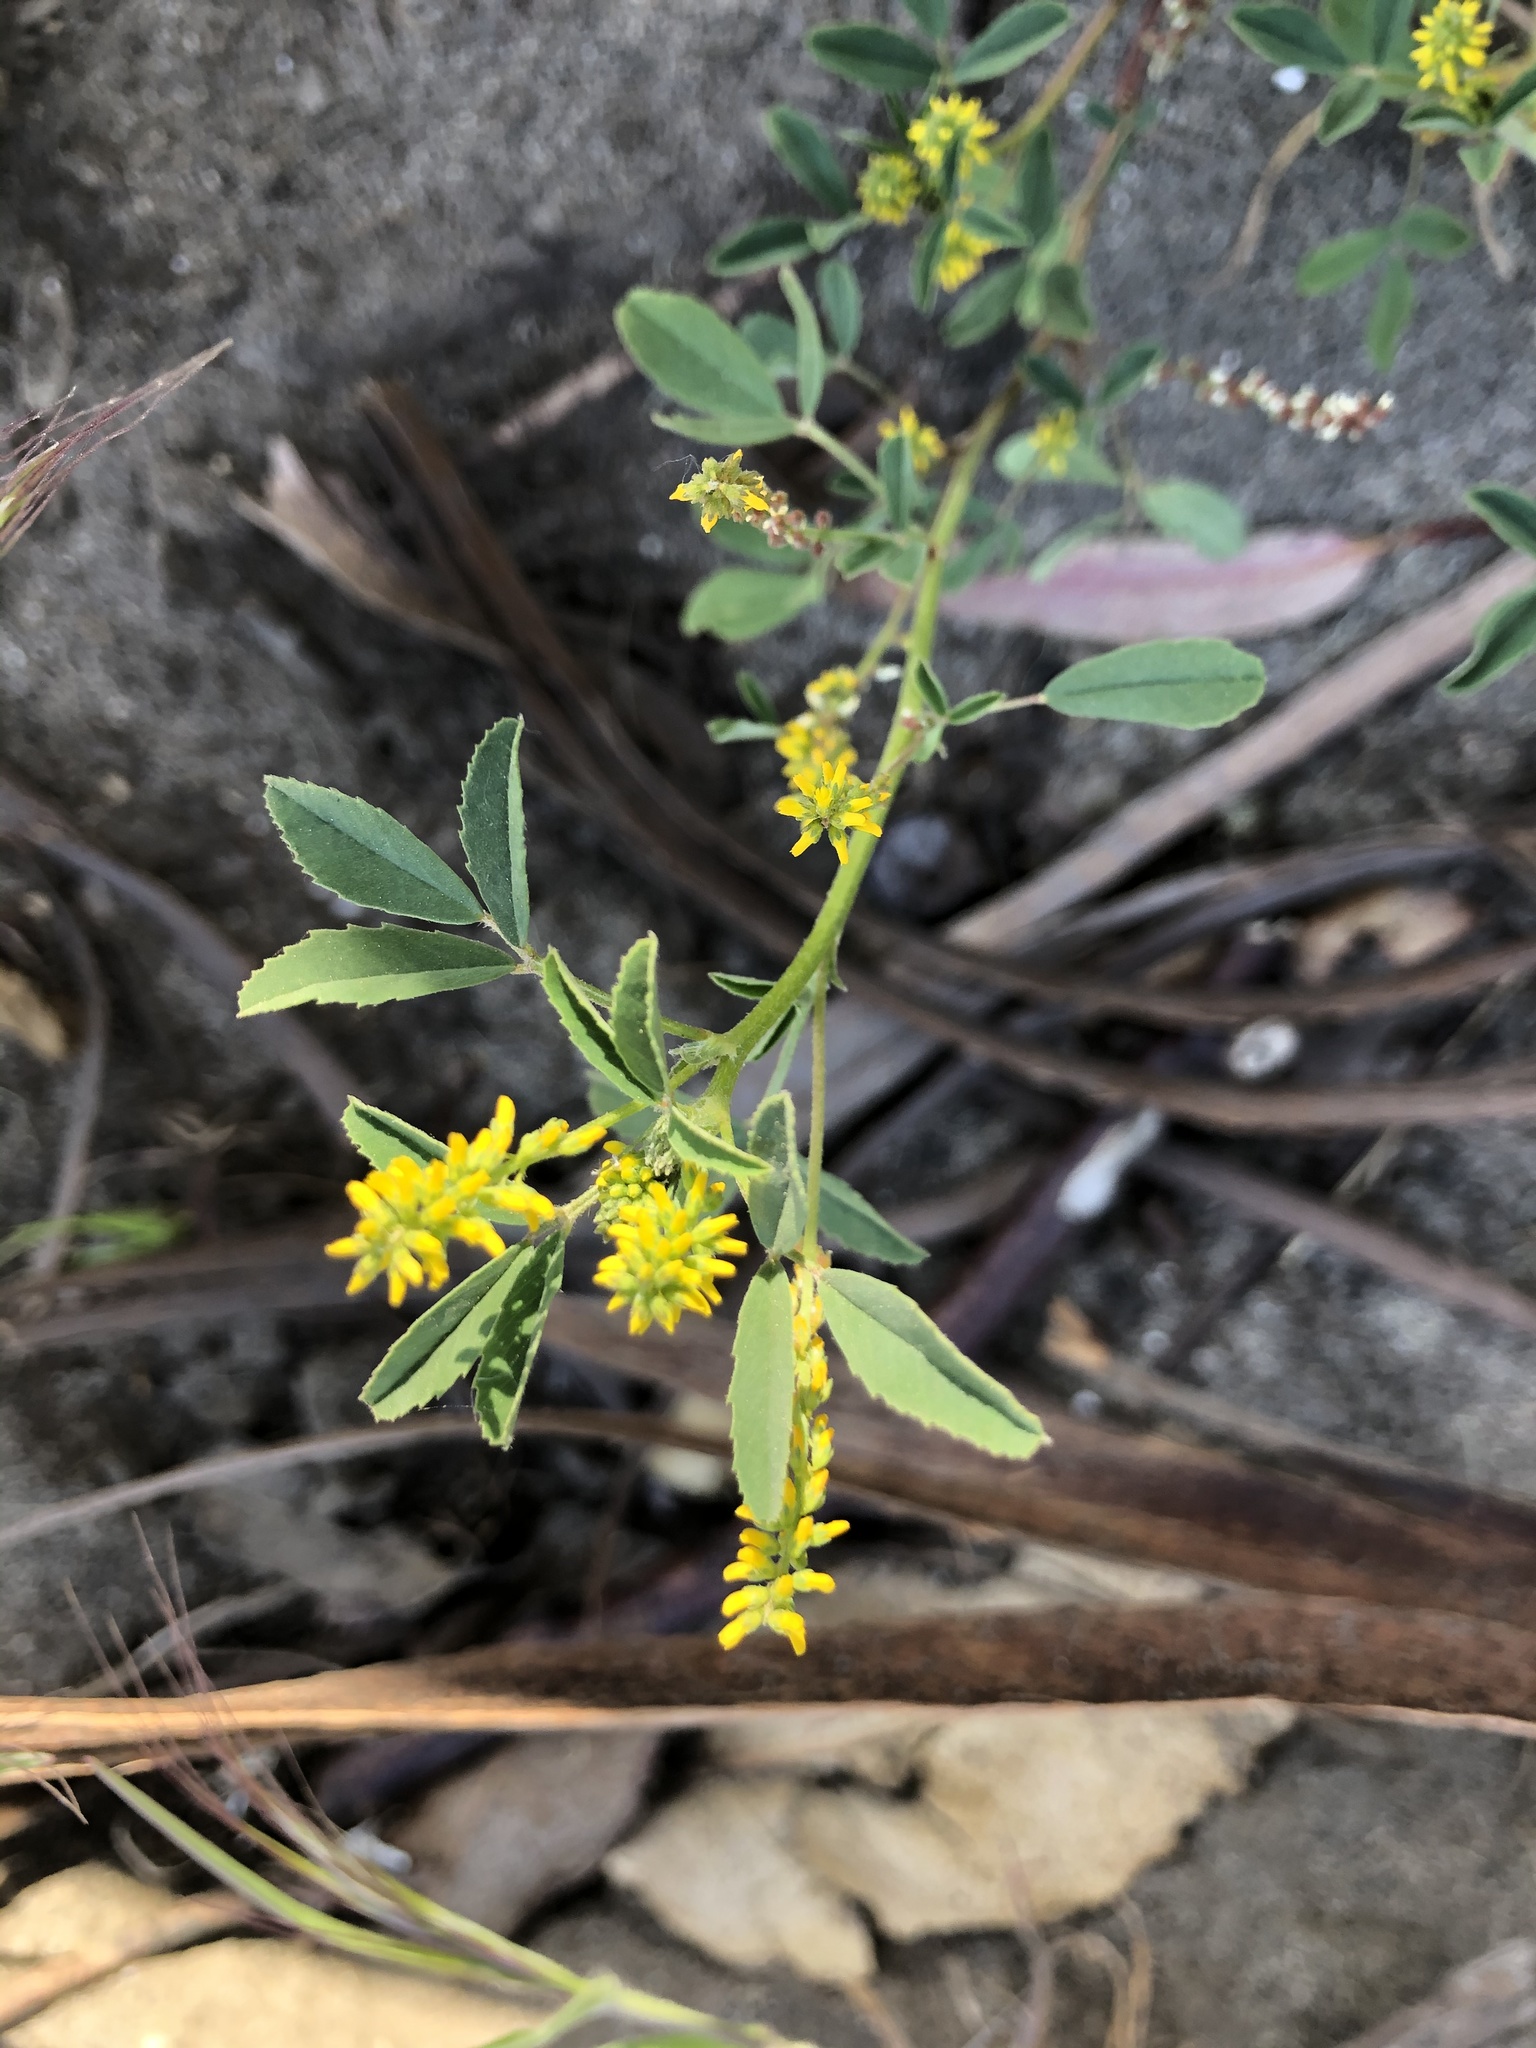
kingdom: Plantae
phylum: Tracheophyta
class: Magnoliopsida
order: Fabales
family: Fabaceae
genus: Melilotus
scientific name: Melilotus indicus
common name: Small melilot
